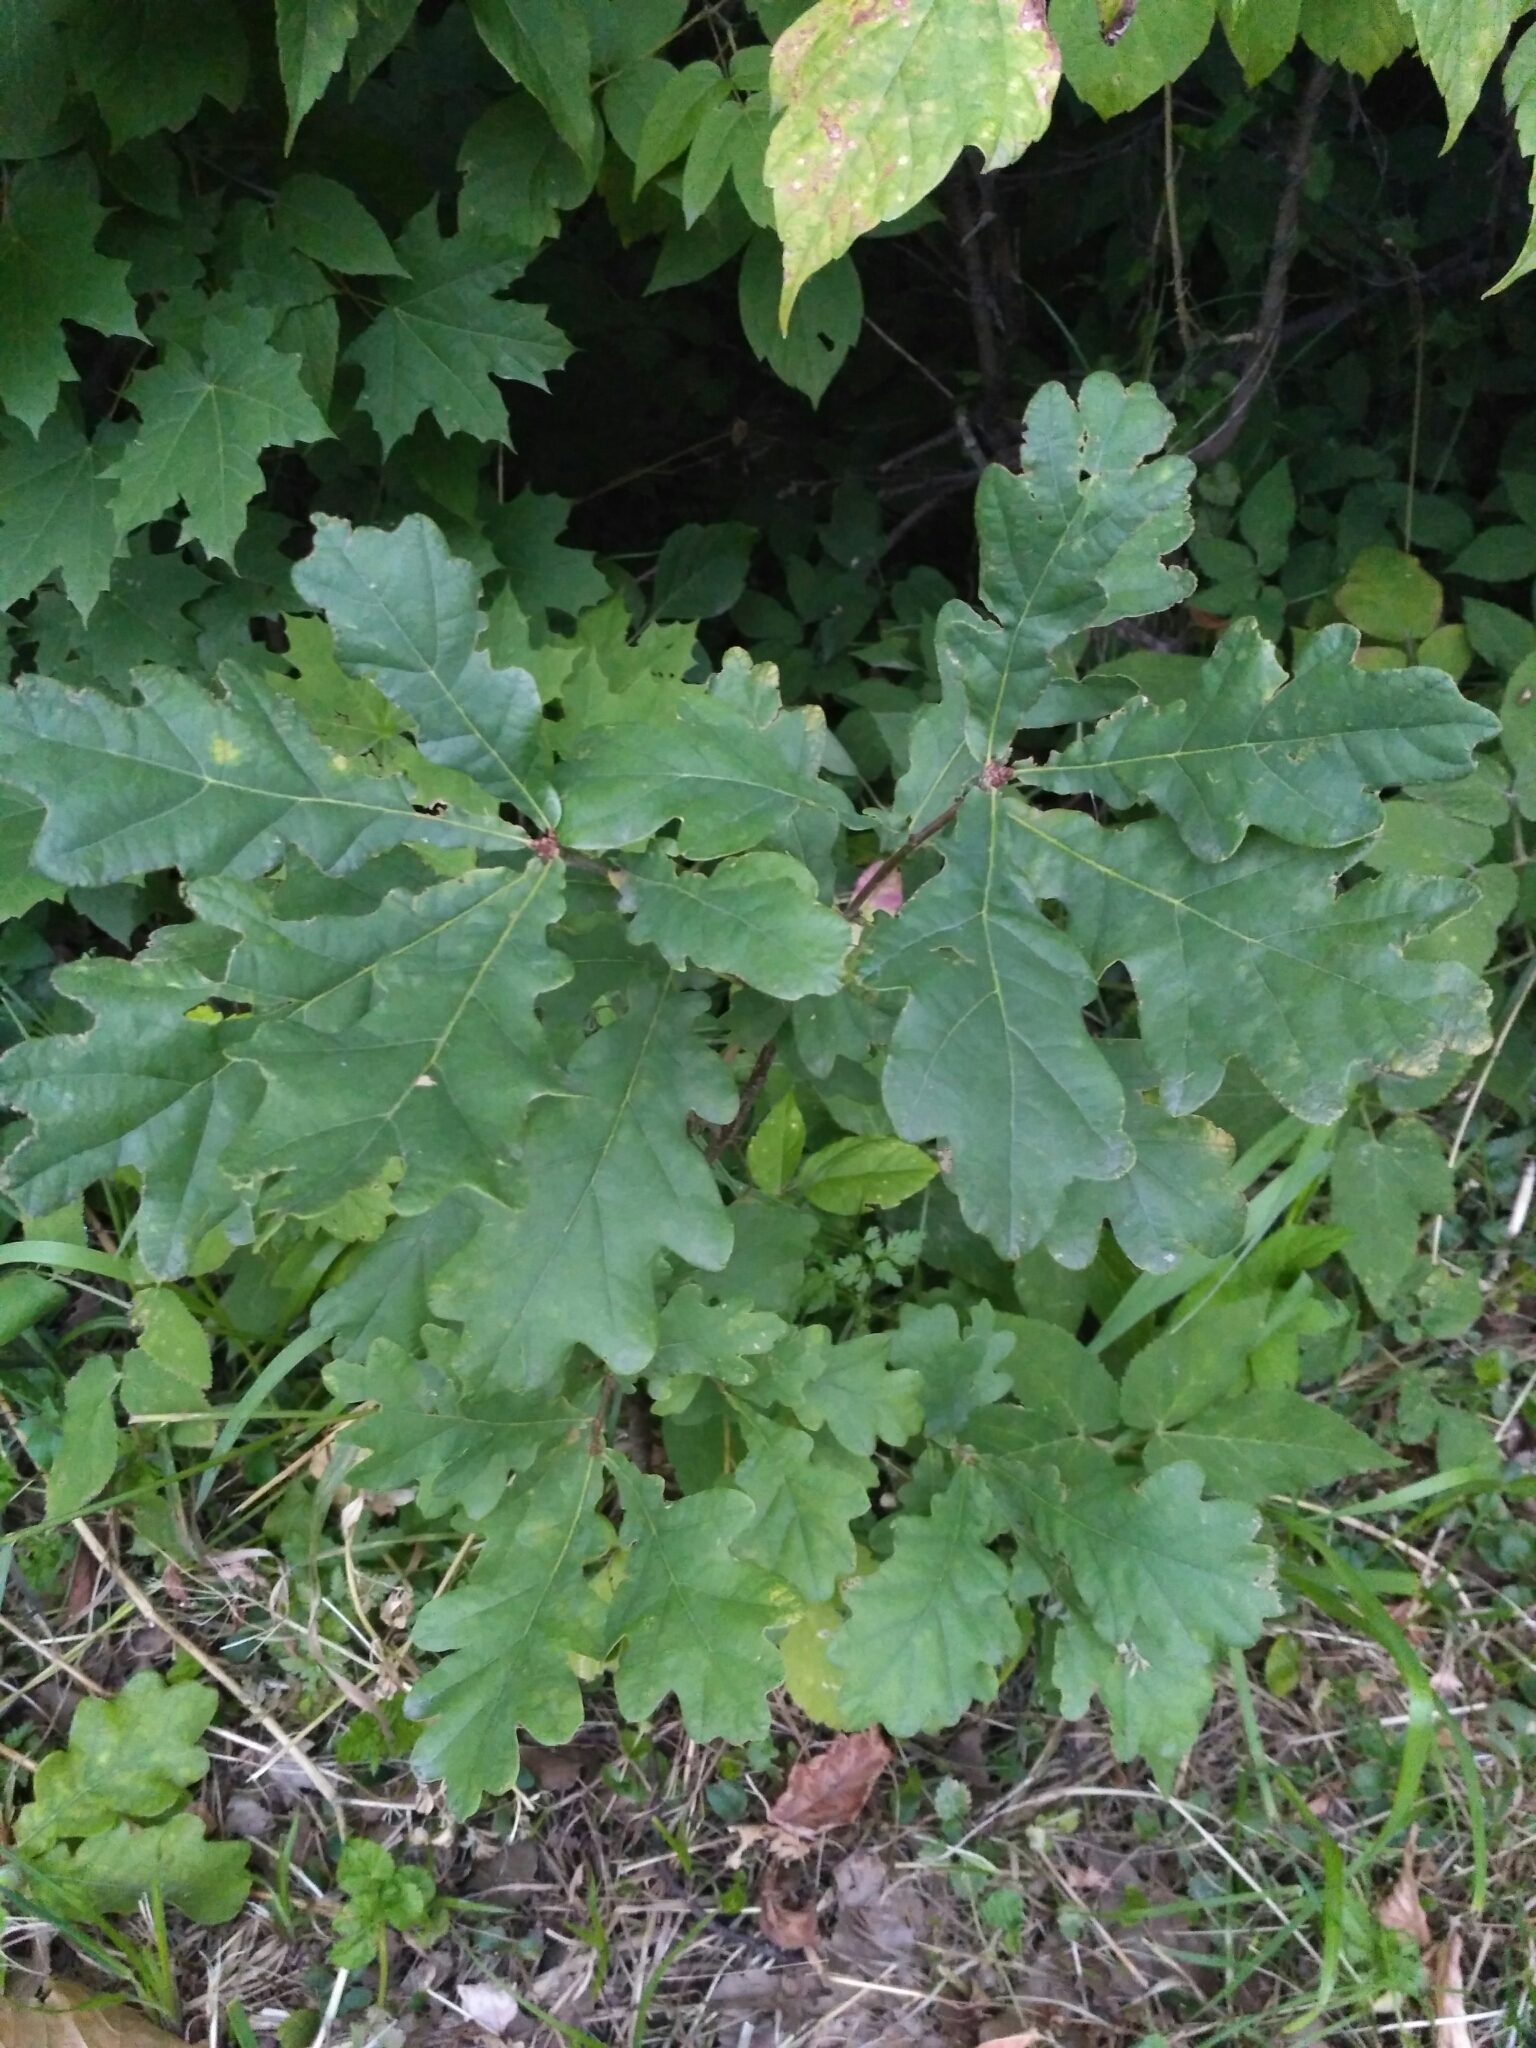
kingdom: Plantae
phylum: Tracheophyta
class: Magnoliopsida
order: Fagales
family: Fagaceae
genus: Quercus
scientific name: Quercus robur
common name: Pedunculate oak
